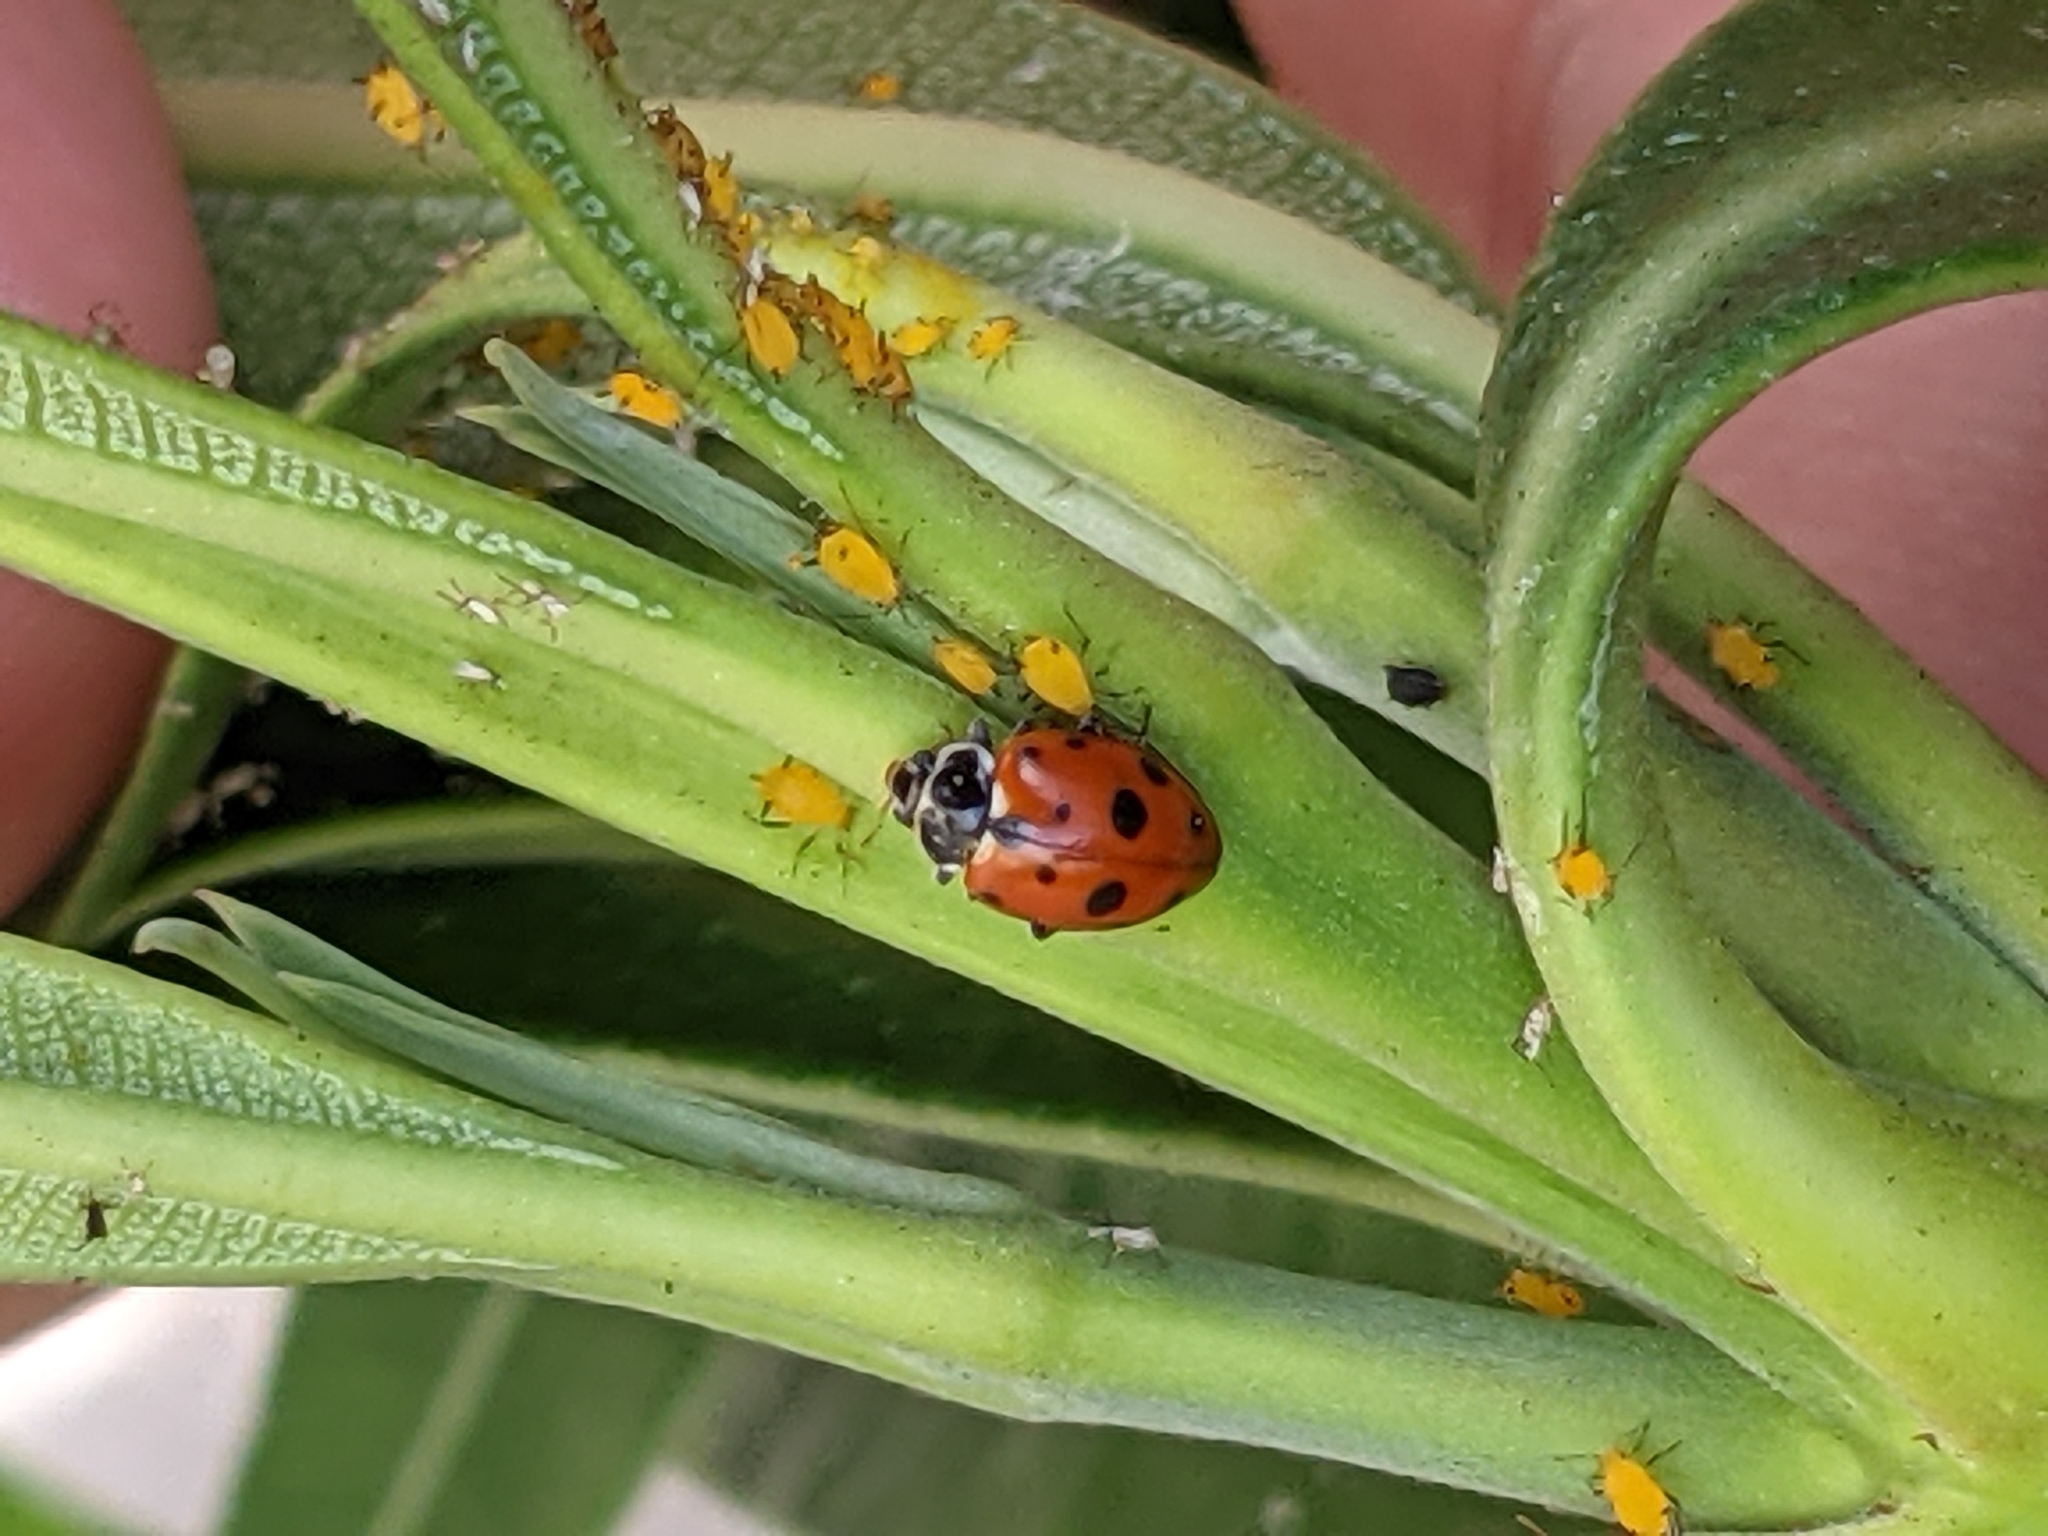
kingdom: Animalia
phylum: Arthropoda
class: Insecta
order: Coleoptera
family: Coccinellidae
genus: Hippodamia
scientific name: Hippodamia variegata
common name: Ladybird beetle
